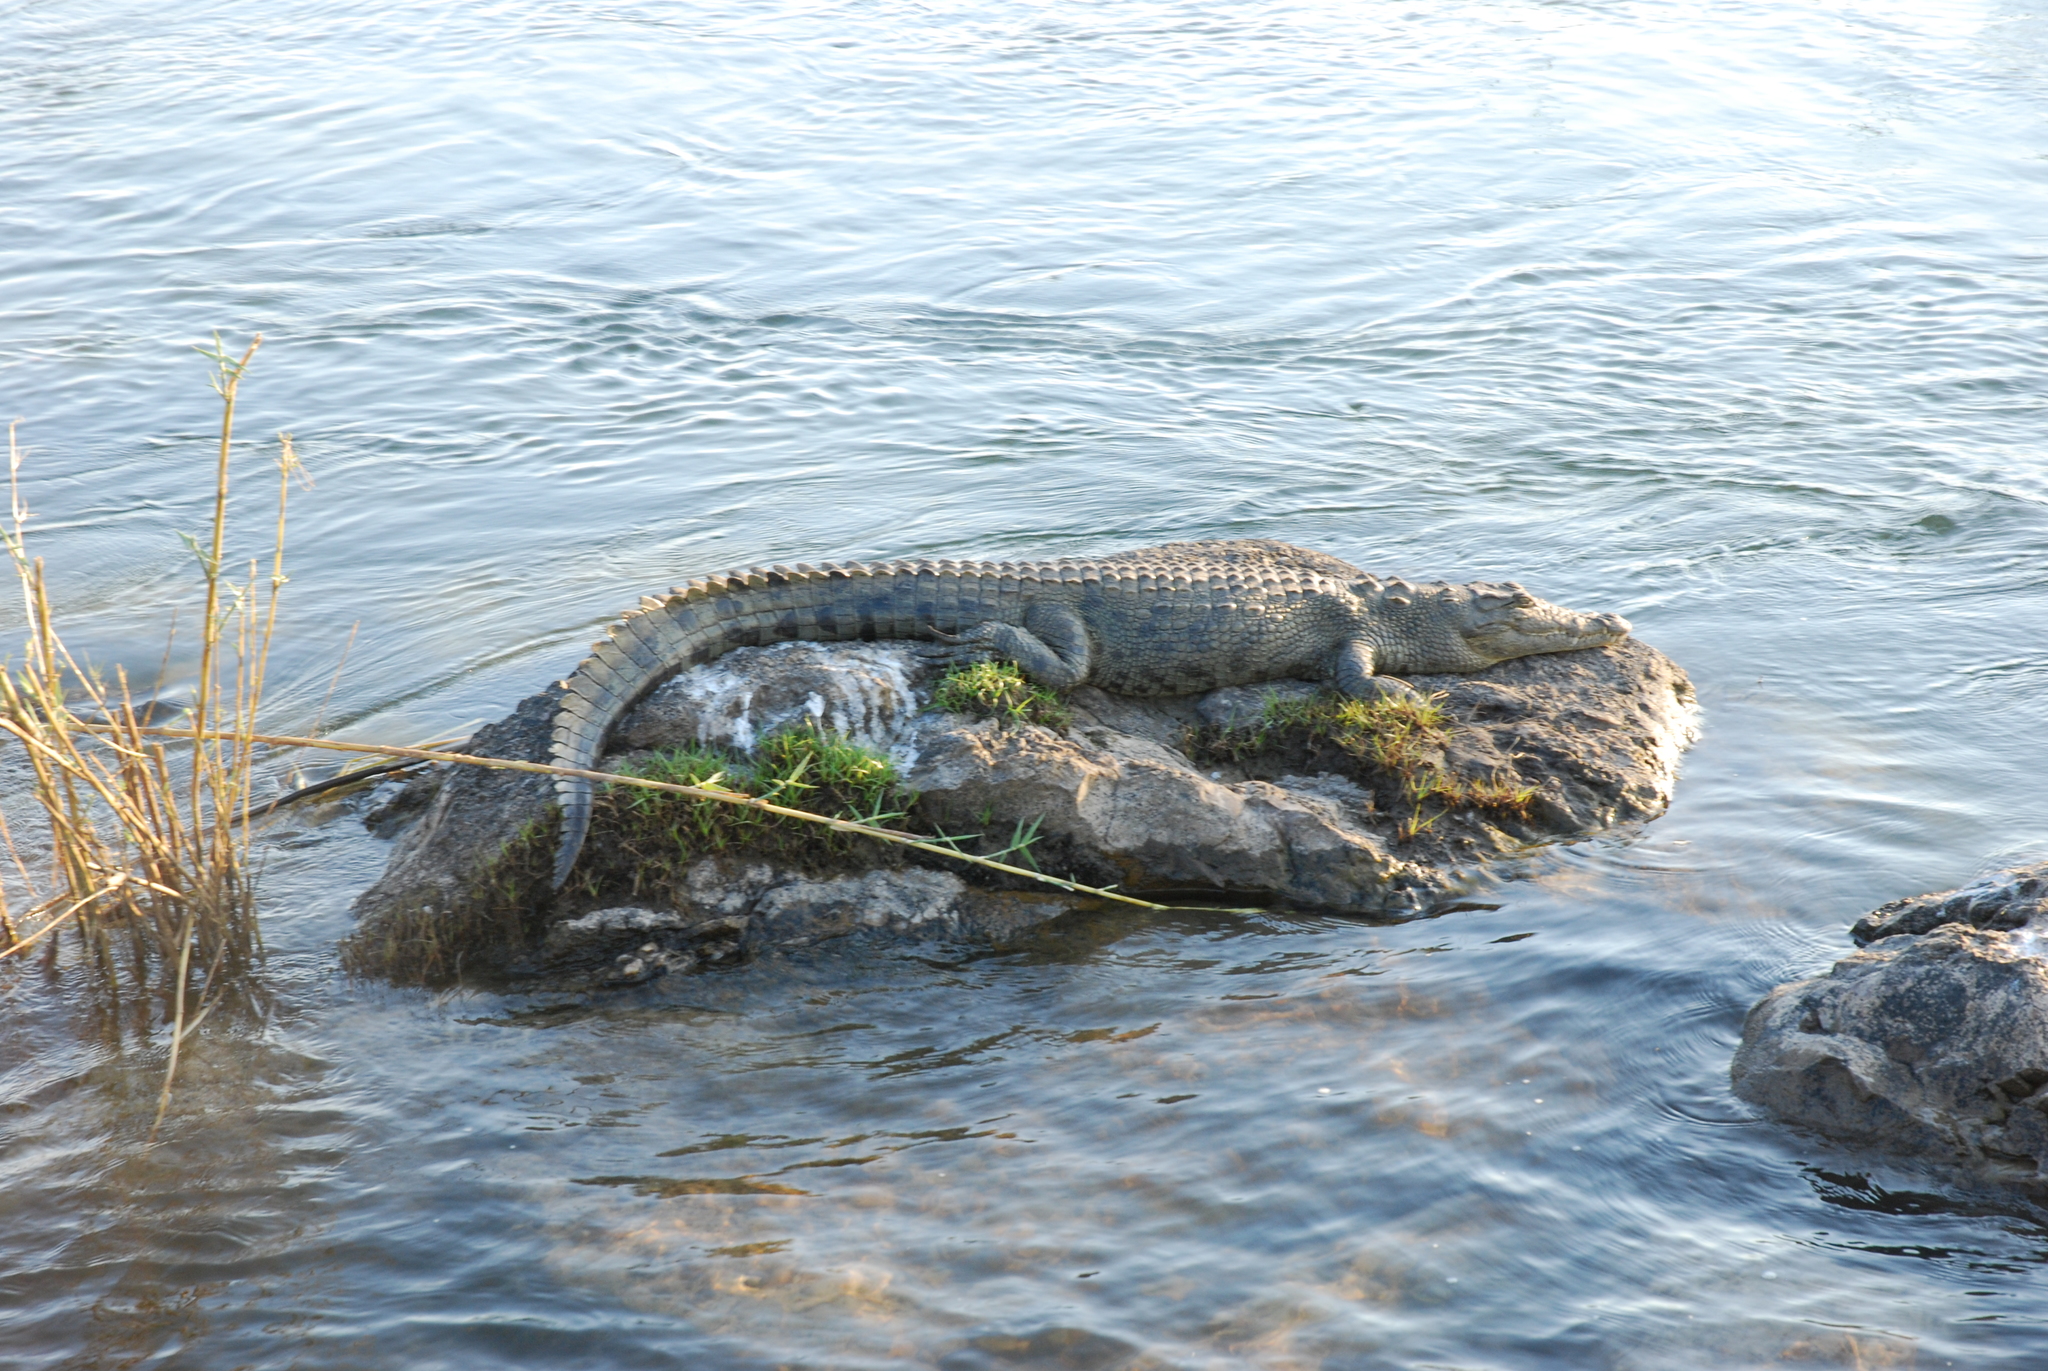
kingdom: Animalia
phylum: Chordata
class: Crocodylia
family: Crocodylidae
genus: Crocodylus
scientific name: Crocodylus niloticus
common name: Nile crocodile
